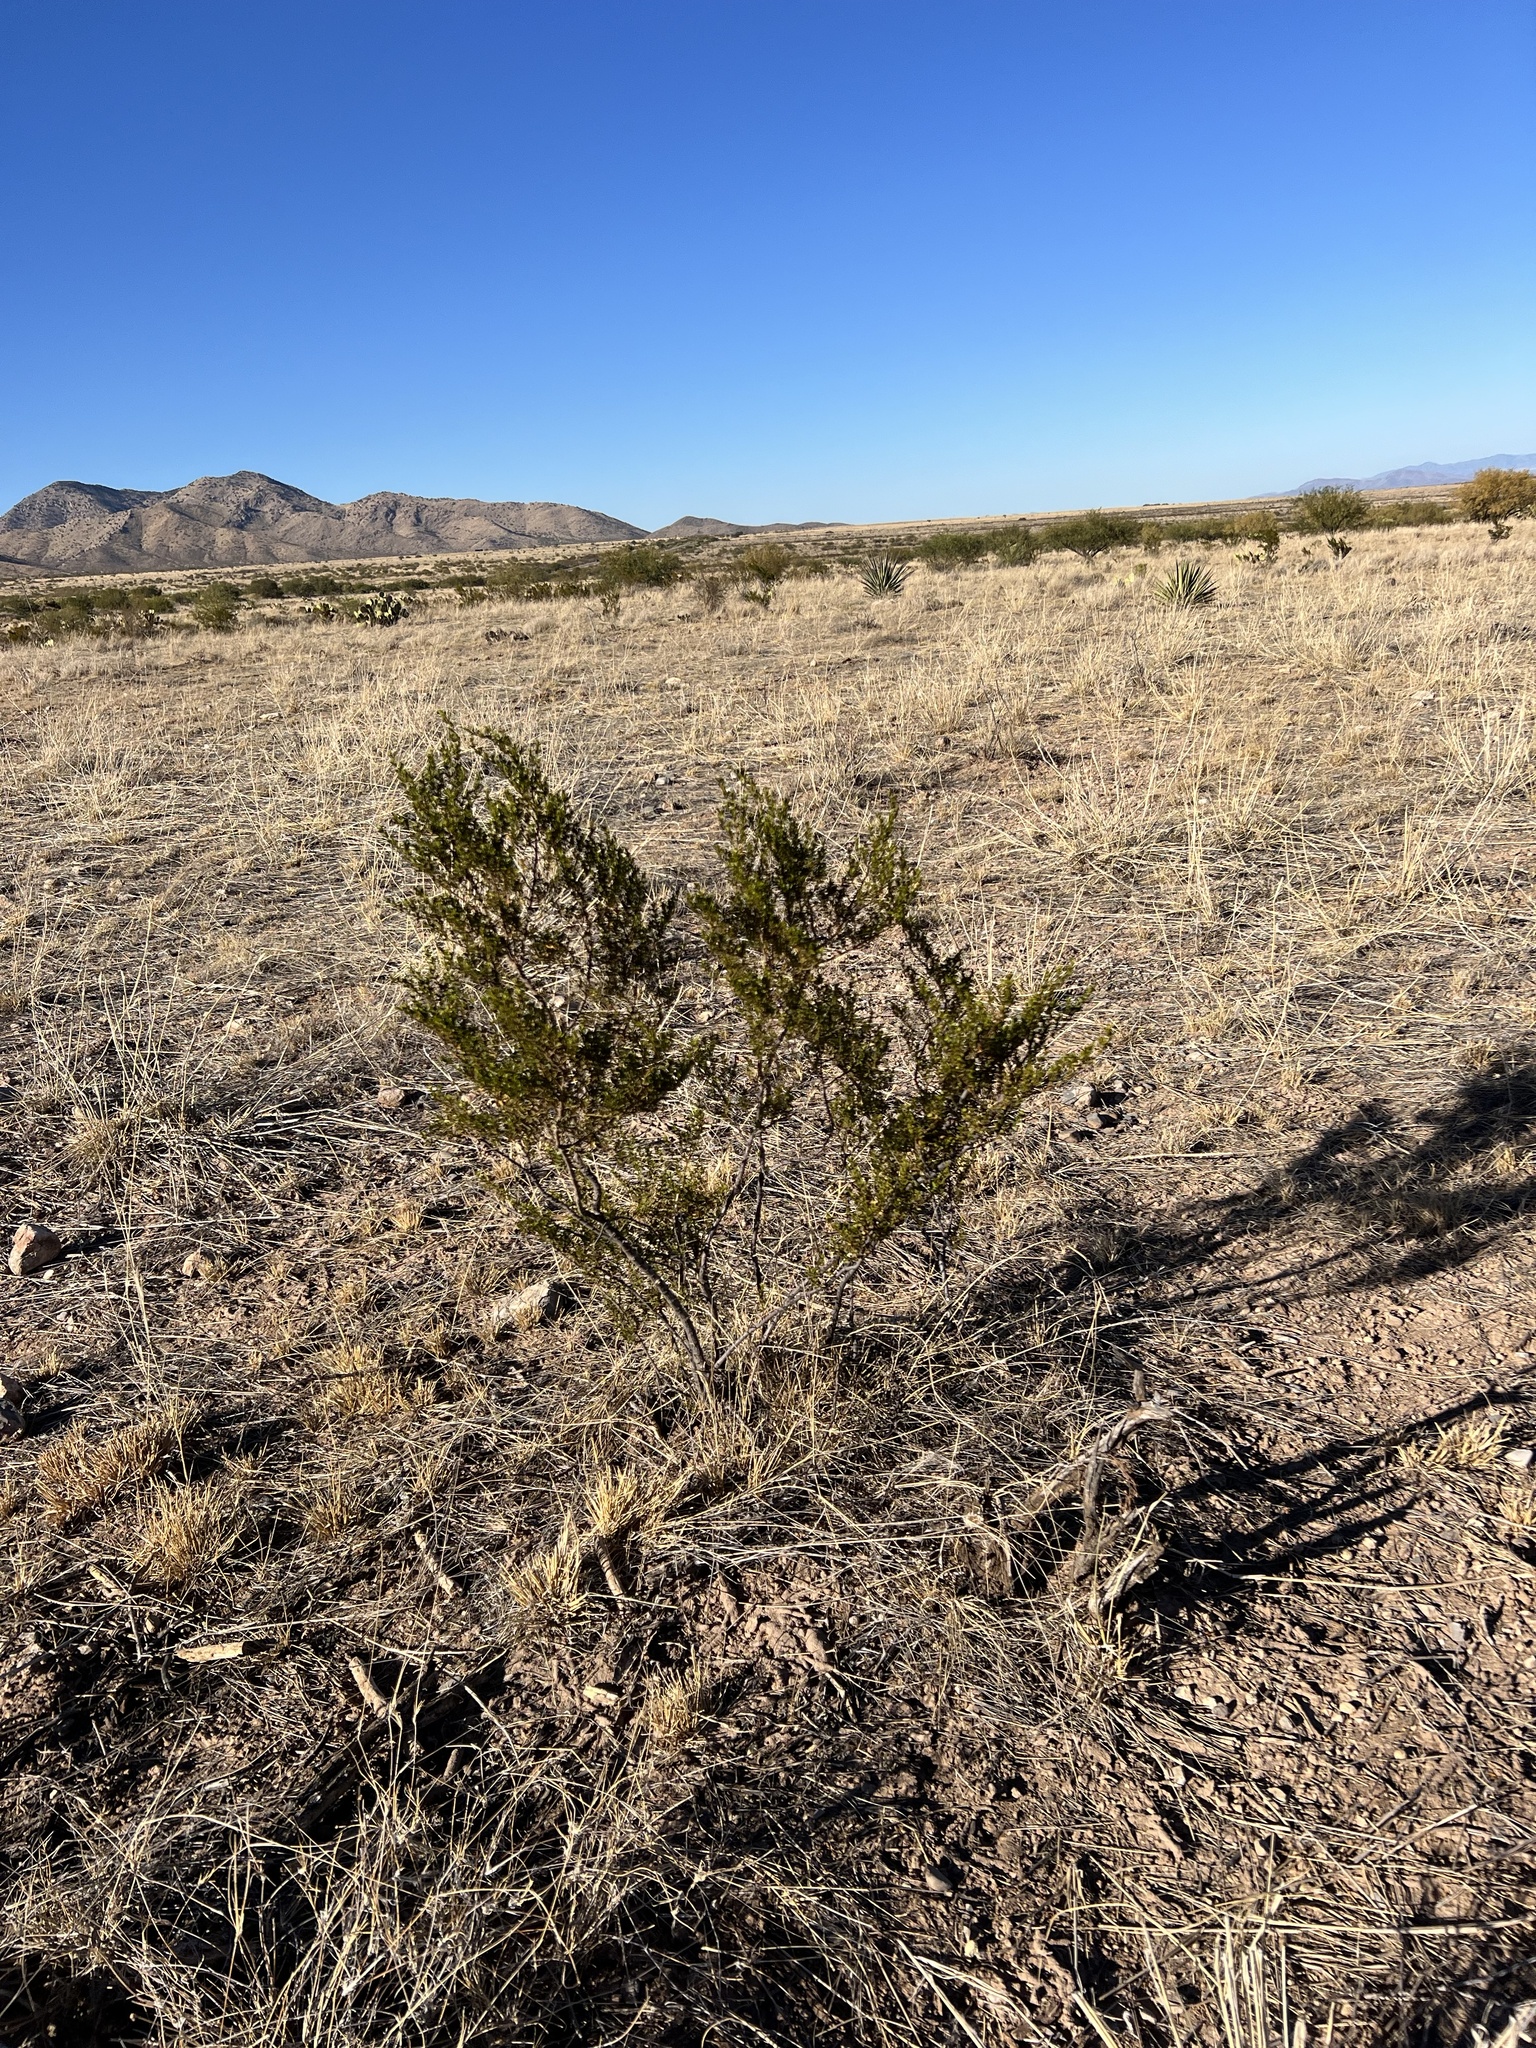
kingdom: Plantae
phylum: Tracheophyta
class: Magnoliopsida
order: Zygophyllales
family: Zygophyllaceae
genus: Larrea
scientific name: Larrea tridentata
